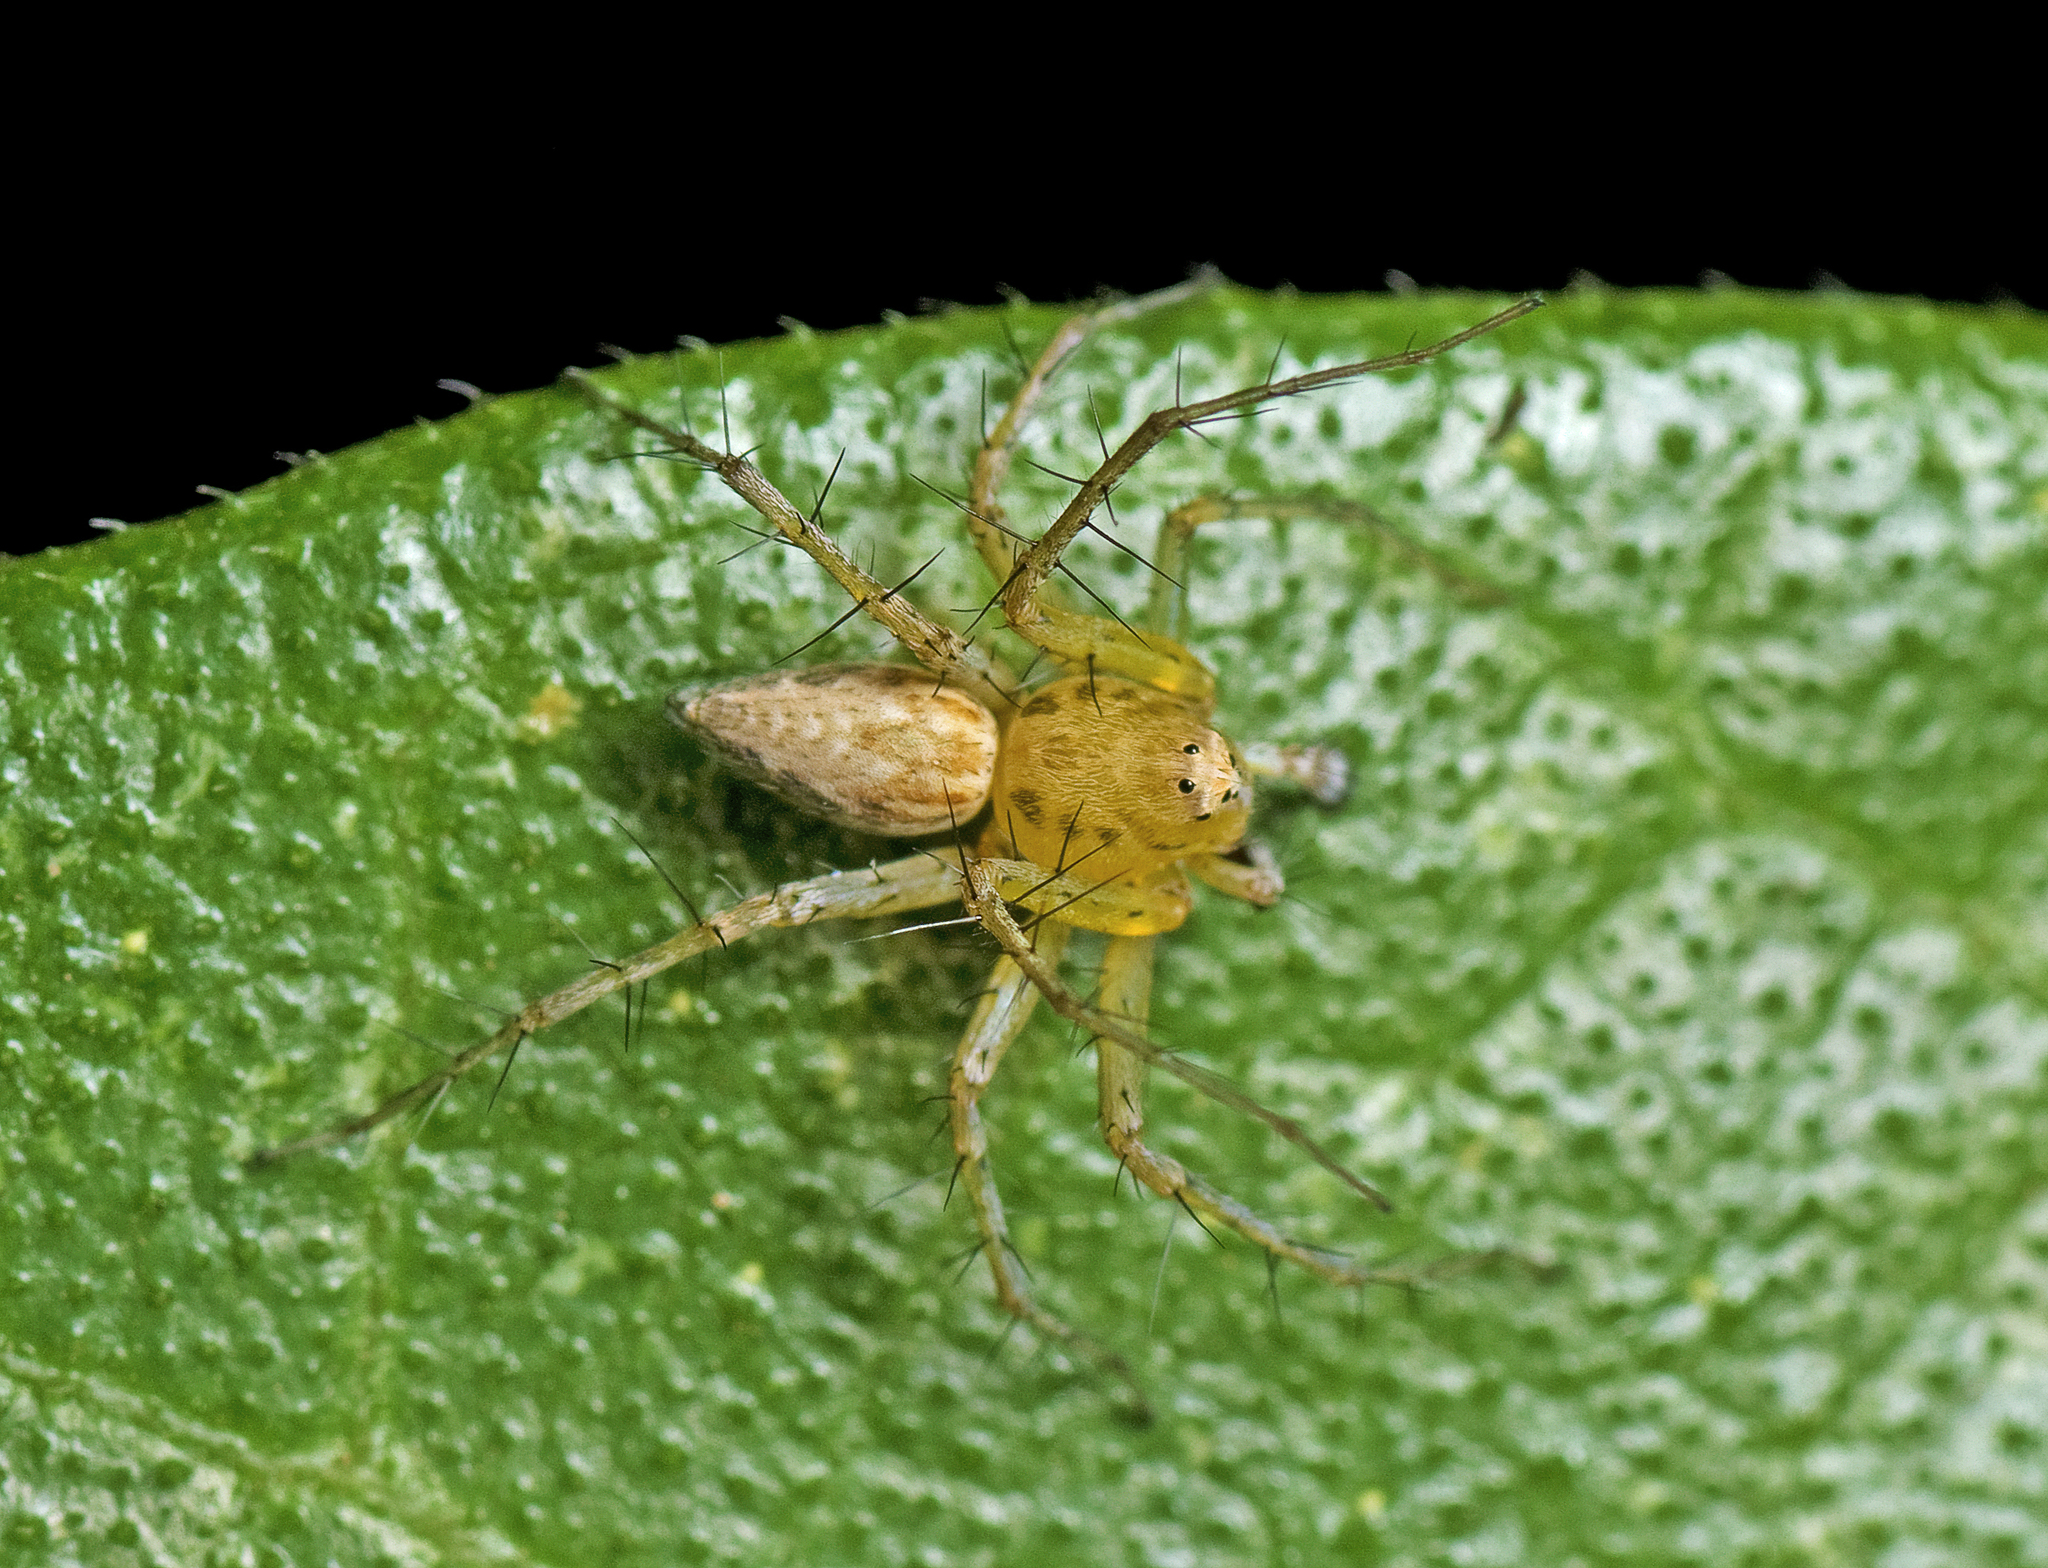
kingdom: Animalia
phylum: Arthropoda
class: Arachnida
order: Araneae
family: Oxyopidae
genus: Oxyopes
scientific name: Oxyopes punctatus
